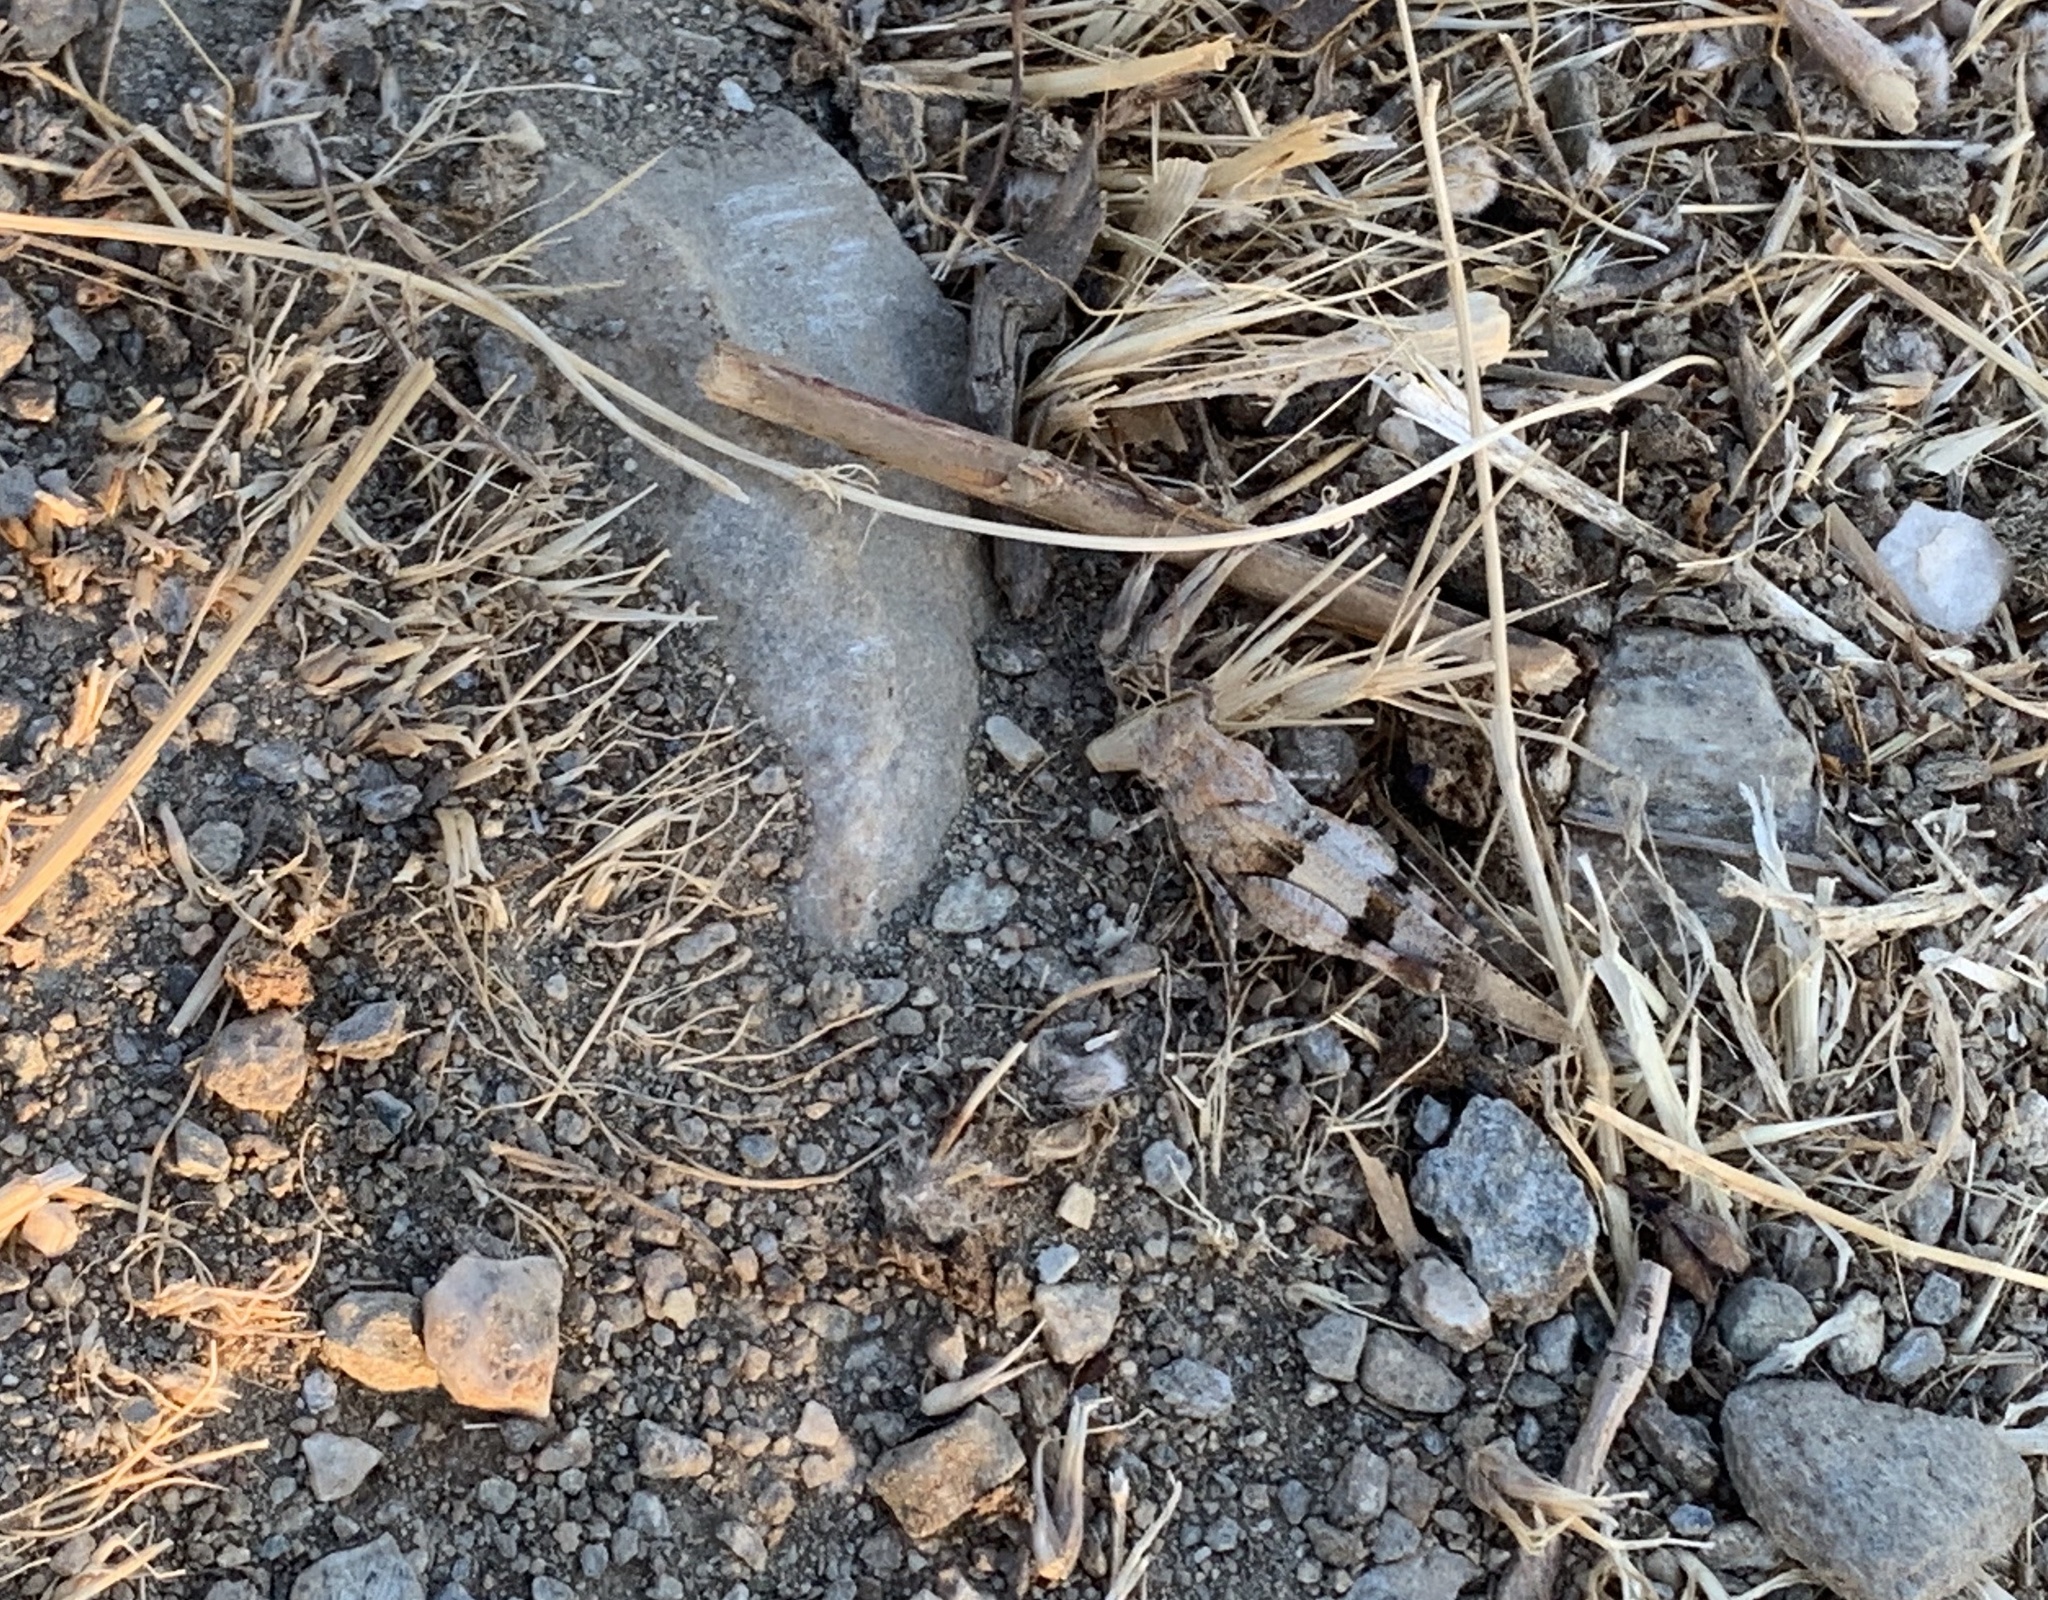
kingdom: Animalia
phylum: Arthropoda
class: Insecta
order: Orthoptera
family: Acrididae
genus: Oedipoda
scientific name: Oedipoda caerulescens
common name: Blue-winged grasshopper
